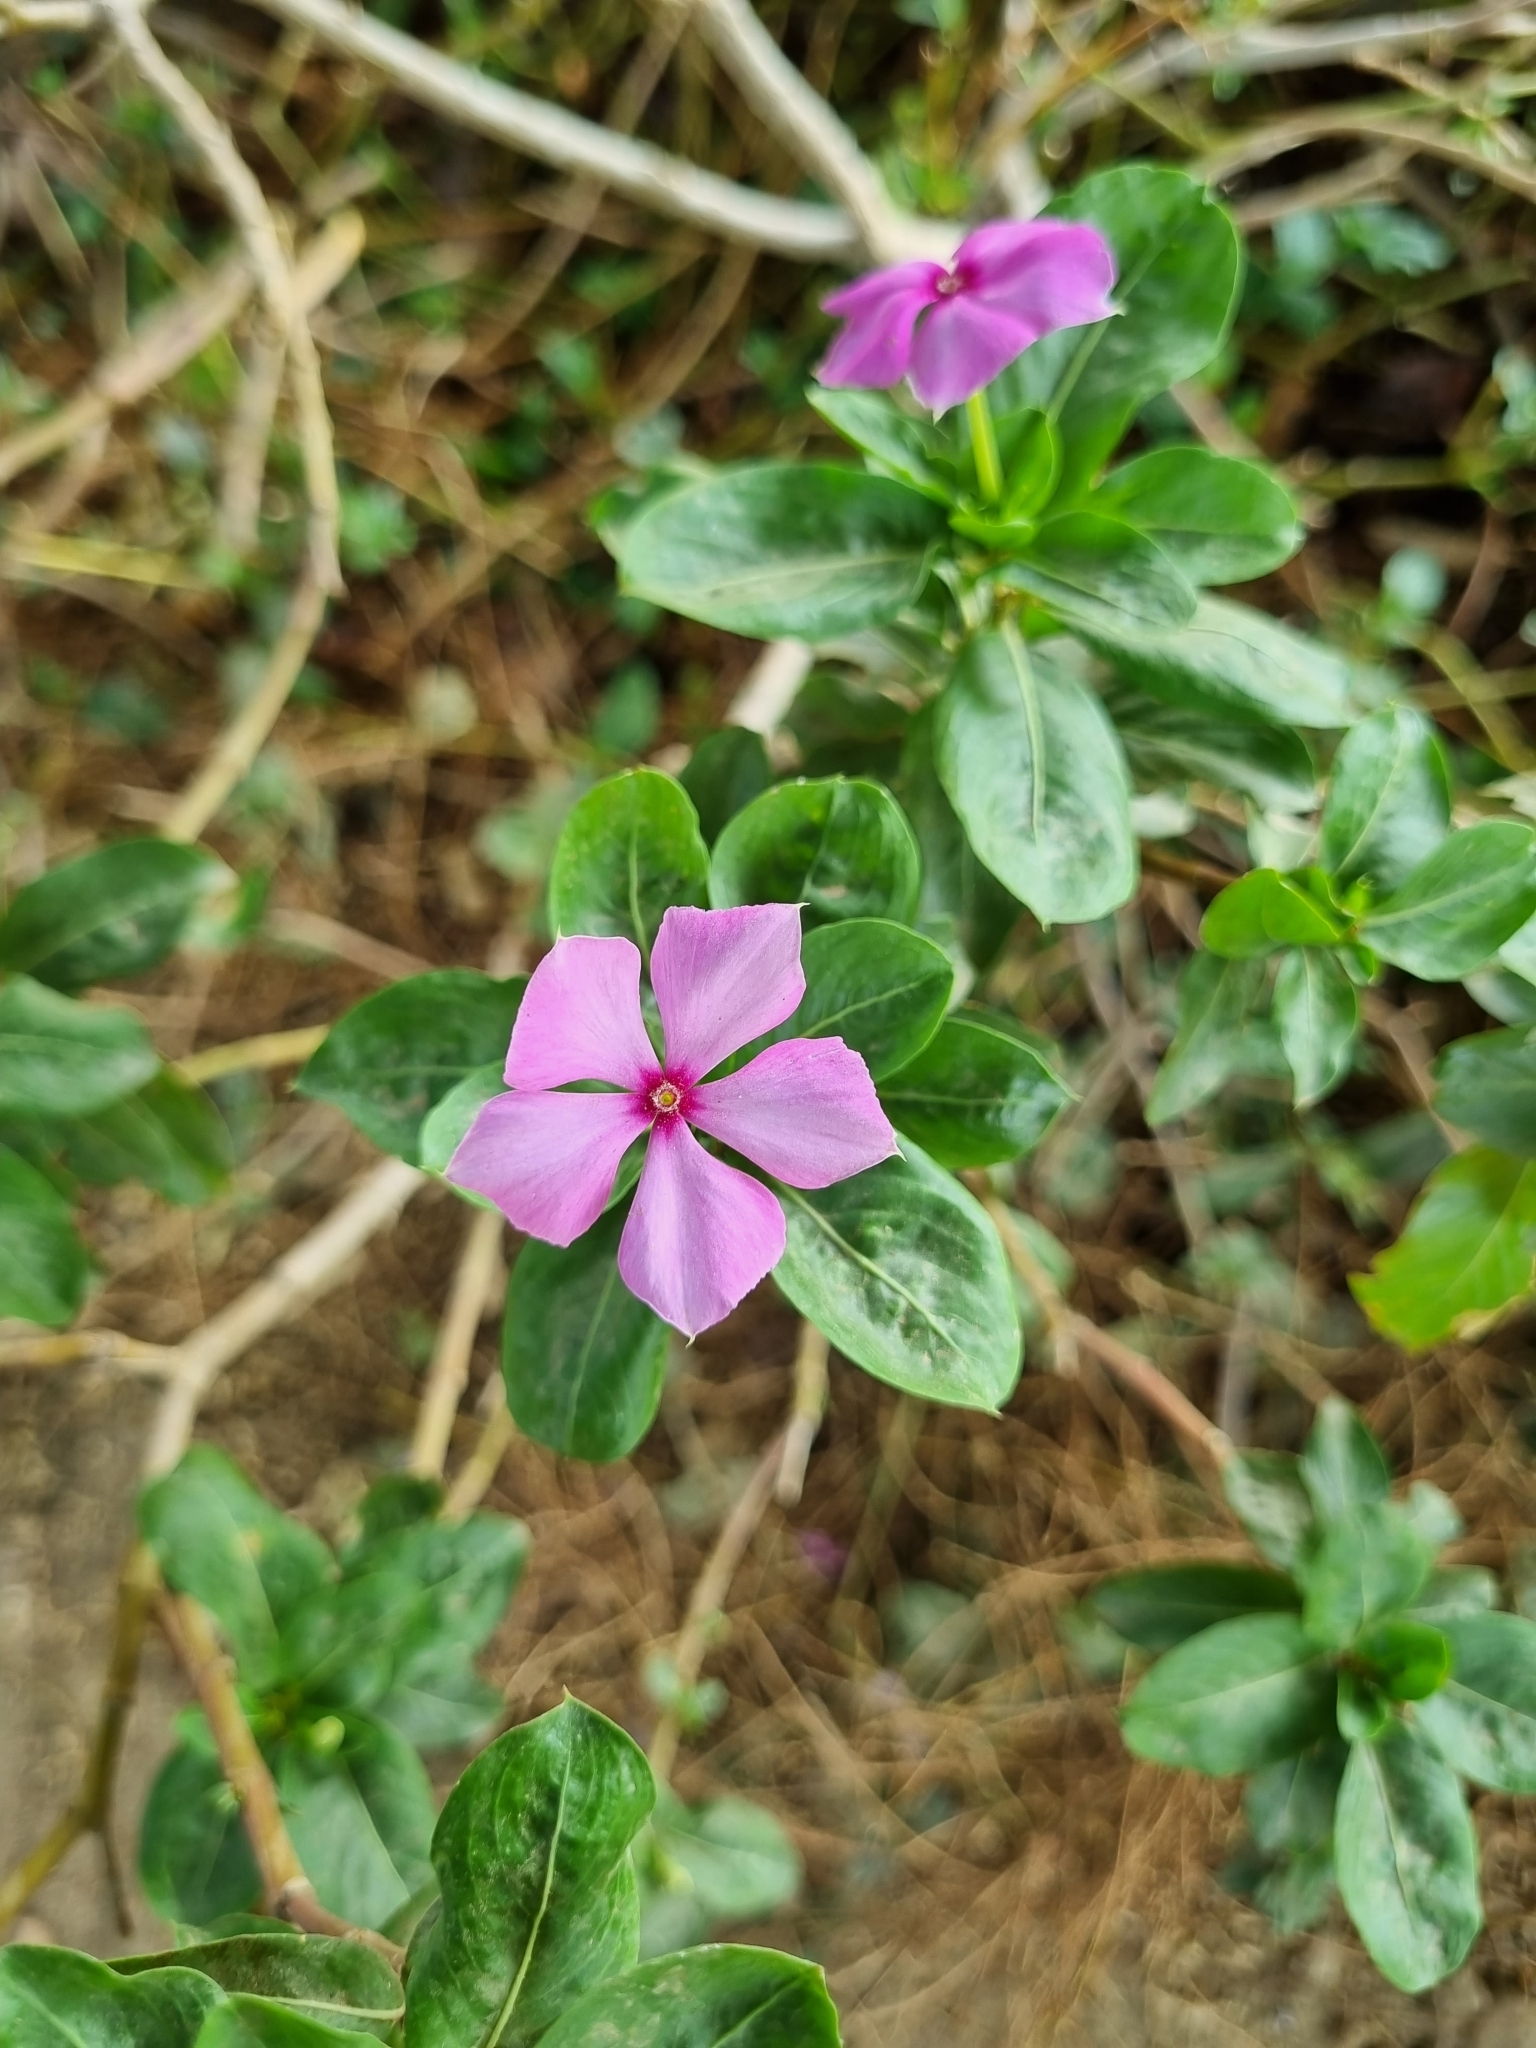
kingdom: Plantae
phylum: Tracheophyta
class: Magnoliopsida
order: Gentianales
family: Apocynaceae
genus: Catharanthus
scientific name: Catharanthus roseus
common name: Madagascar periwinkle
